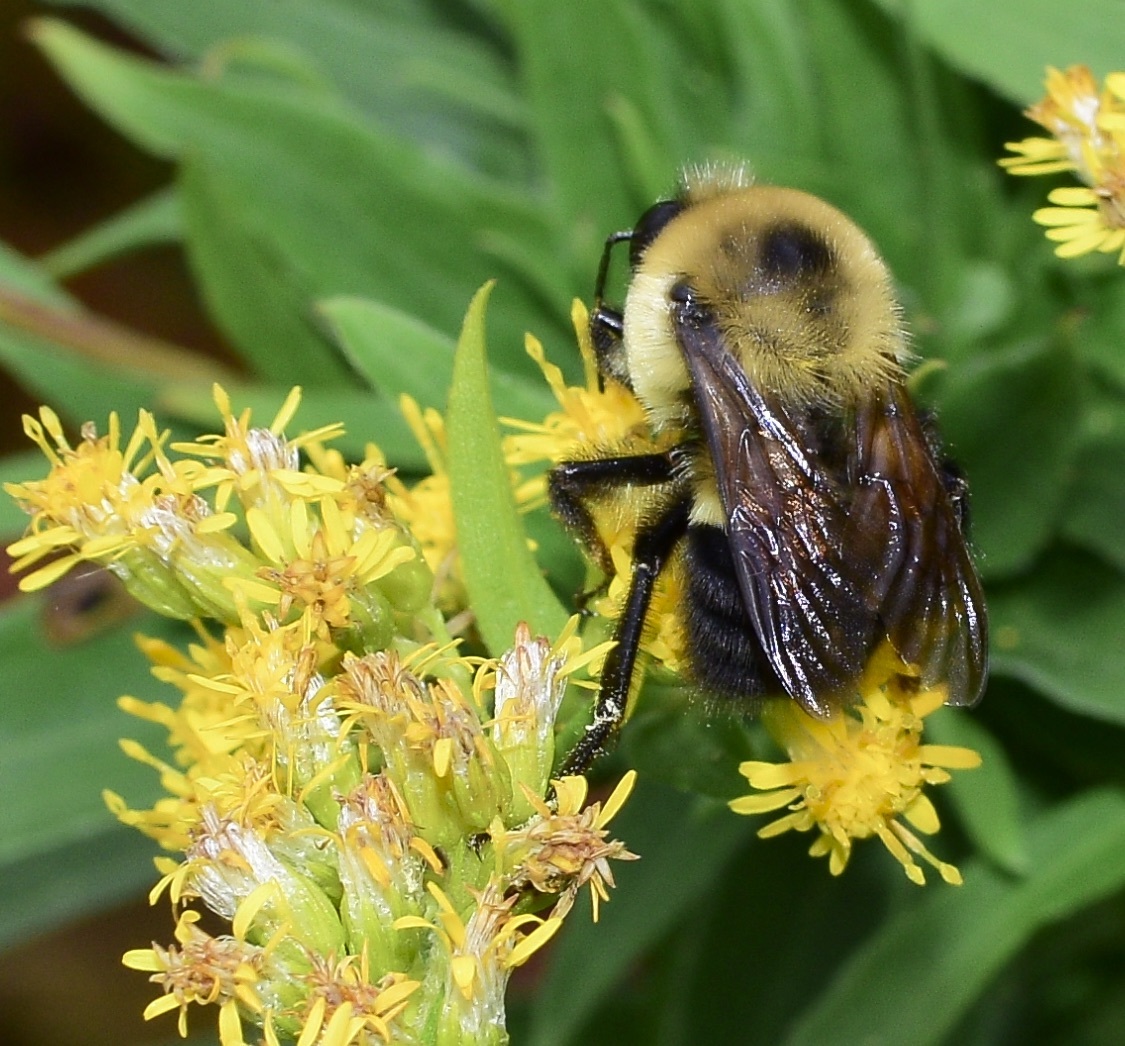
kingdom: Animalia
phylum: Arthropoda
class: Insecta
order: Hymenoptera
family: Apidae
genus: Bombus
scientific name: Bombus griseocollis
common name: Brown-belted bumble bee
